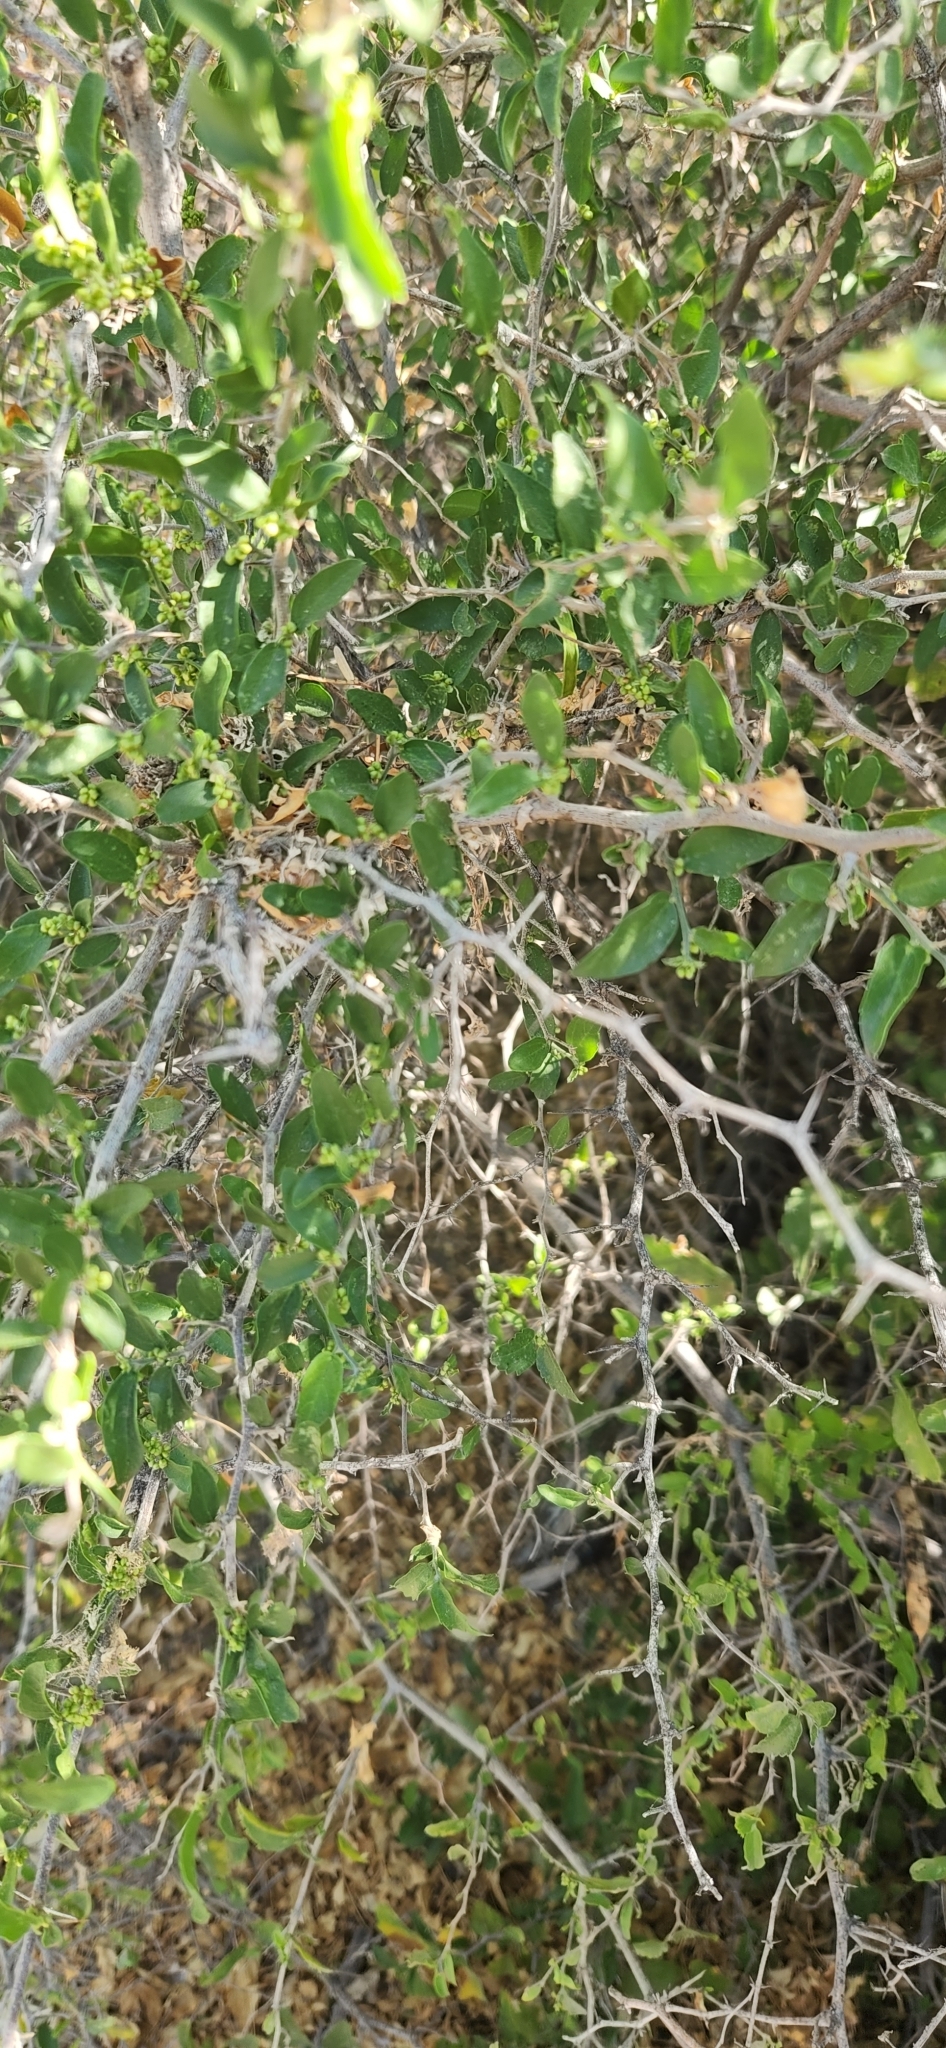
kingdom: Plantae
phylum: Tracheophyta
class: Magnoliopsida
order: Rosales
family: Cannabaceae
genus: Celtis
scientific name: Celtis pallida
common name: Desert hackberry
